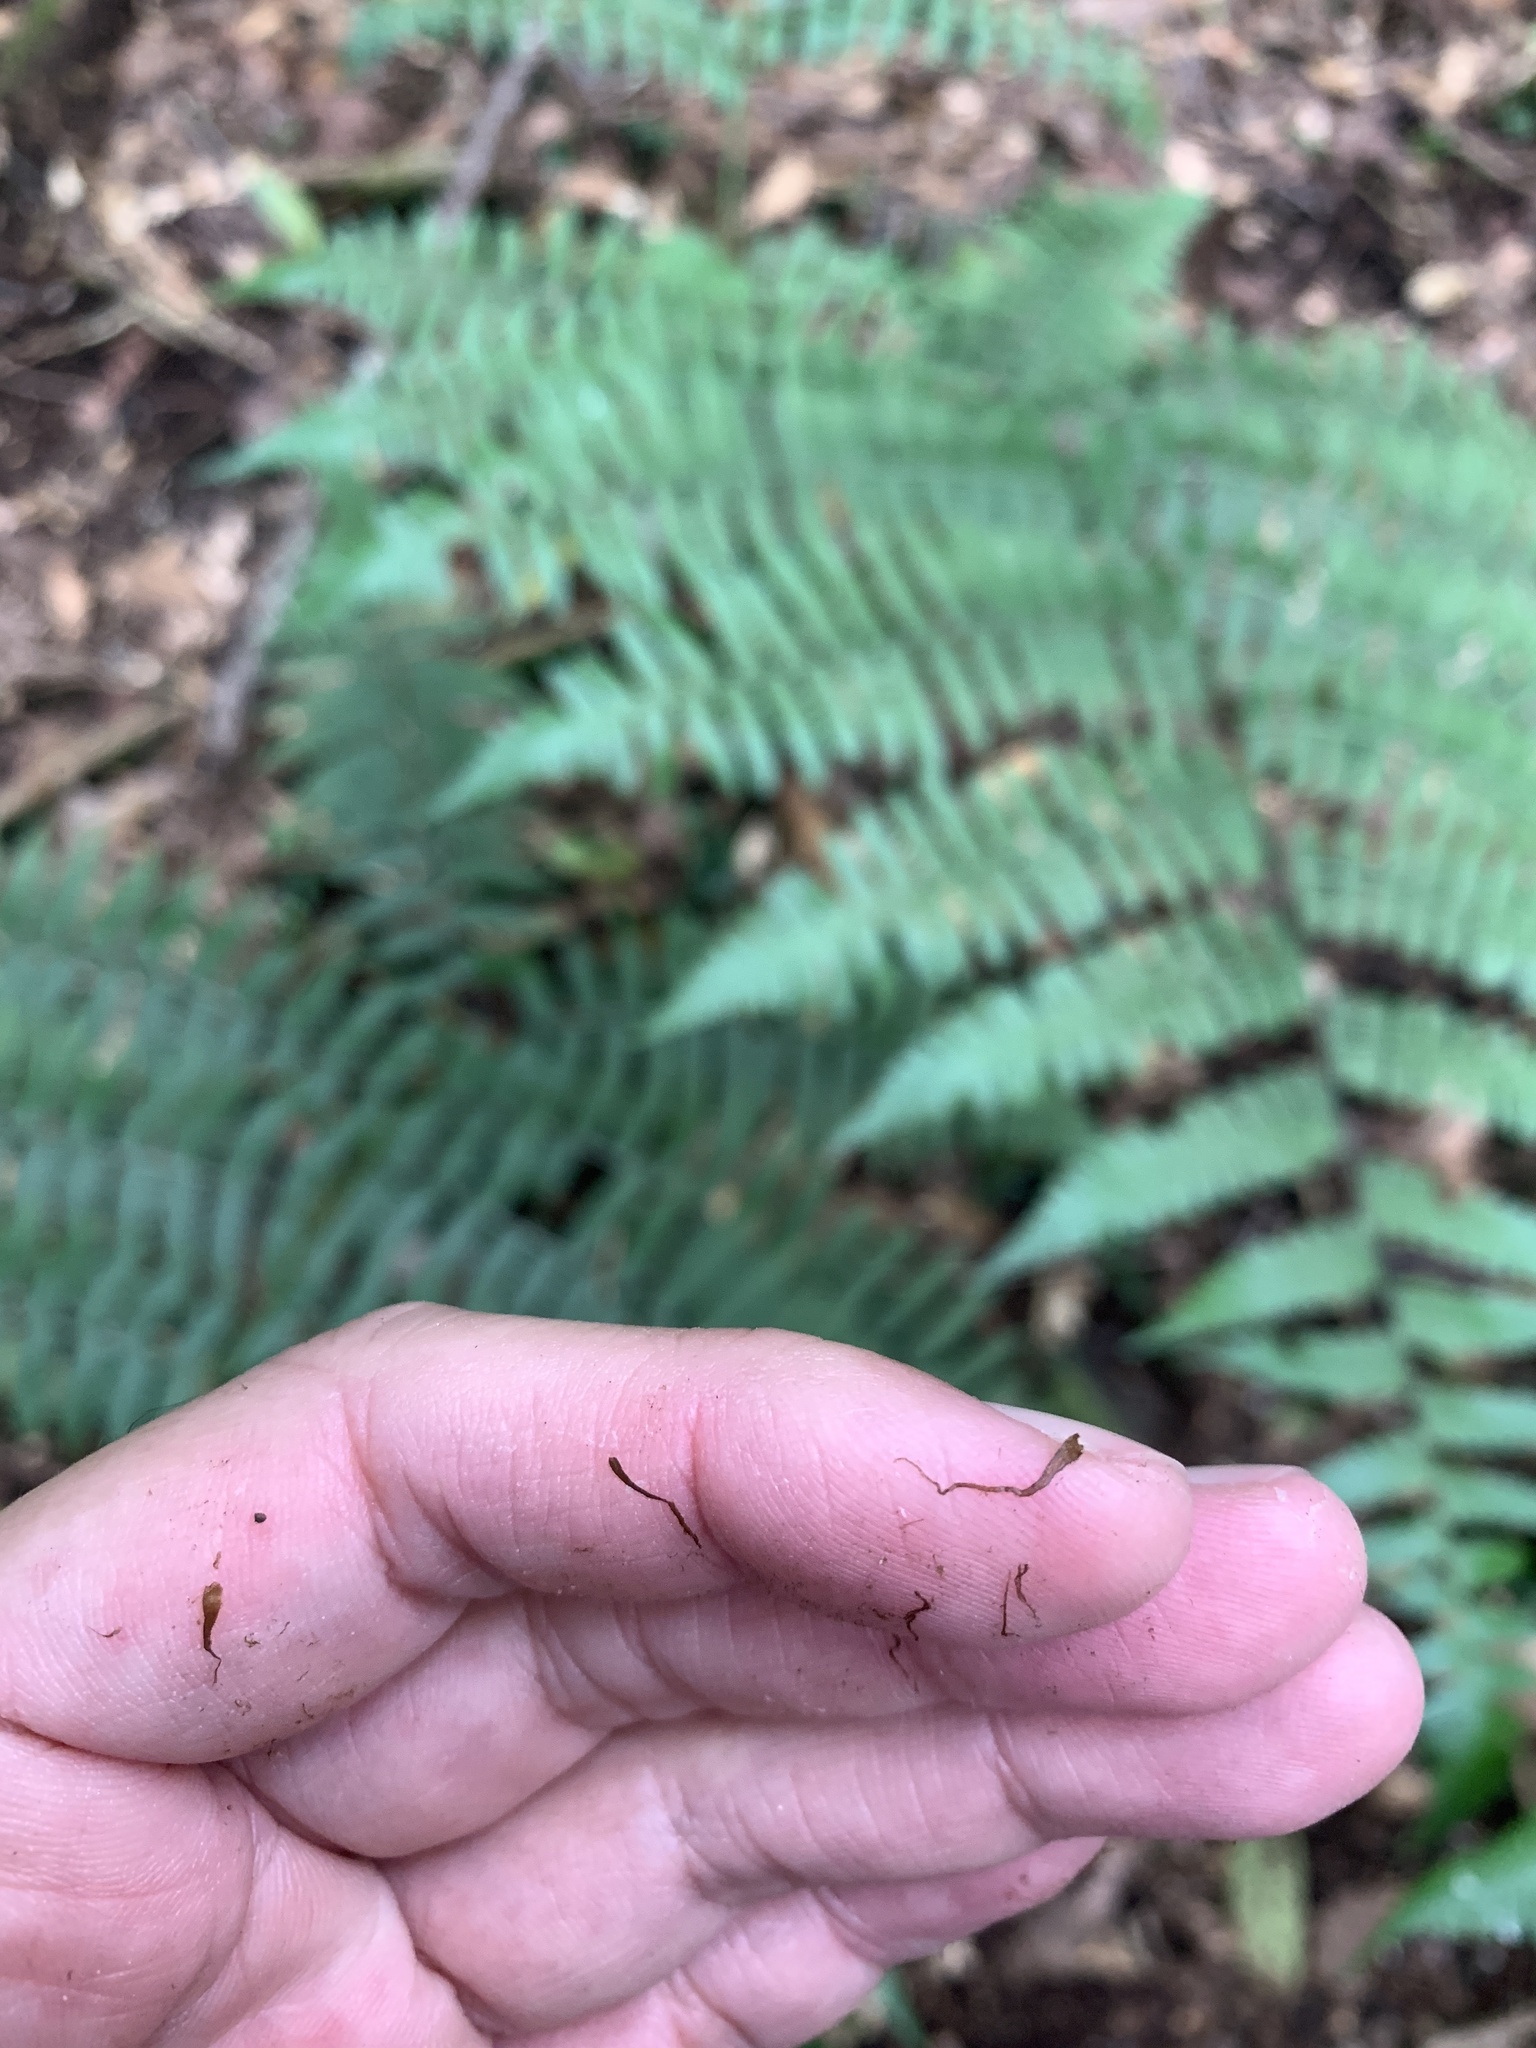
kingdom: Plantae
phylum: Tracheophyta
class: Polypodiopsida
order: Polypodiales
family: Athyriaceae
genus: Diplazium
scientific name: Diplazium maximum
